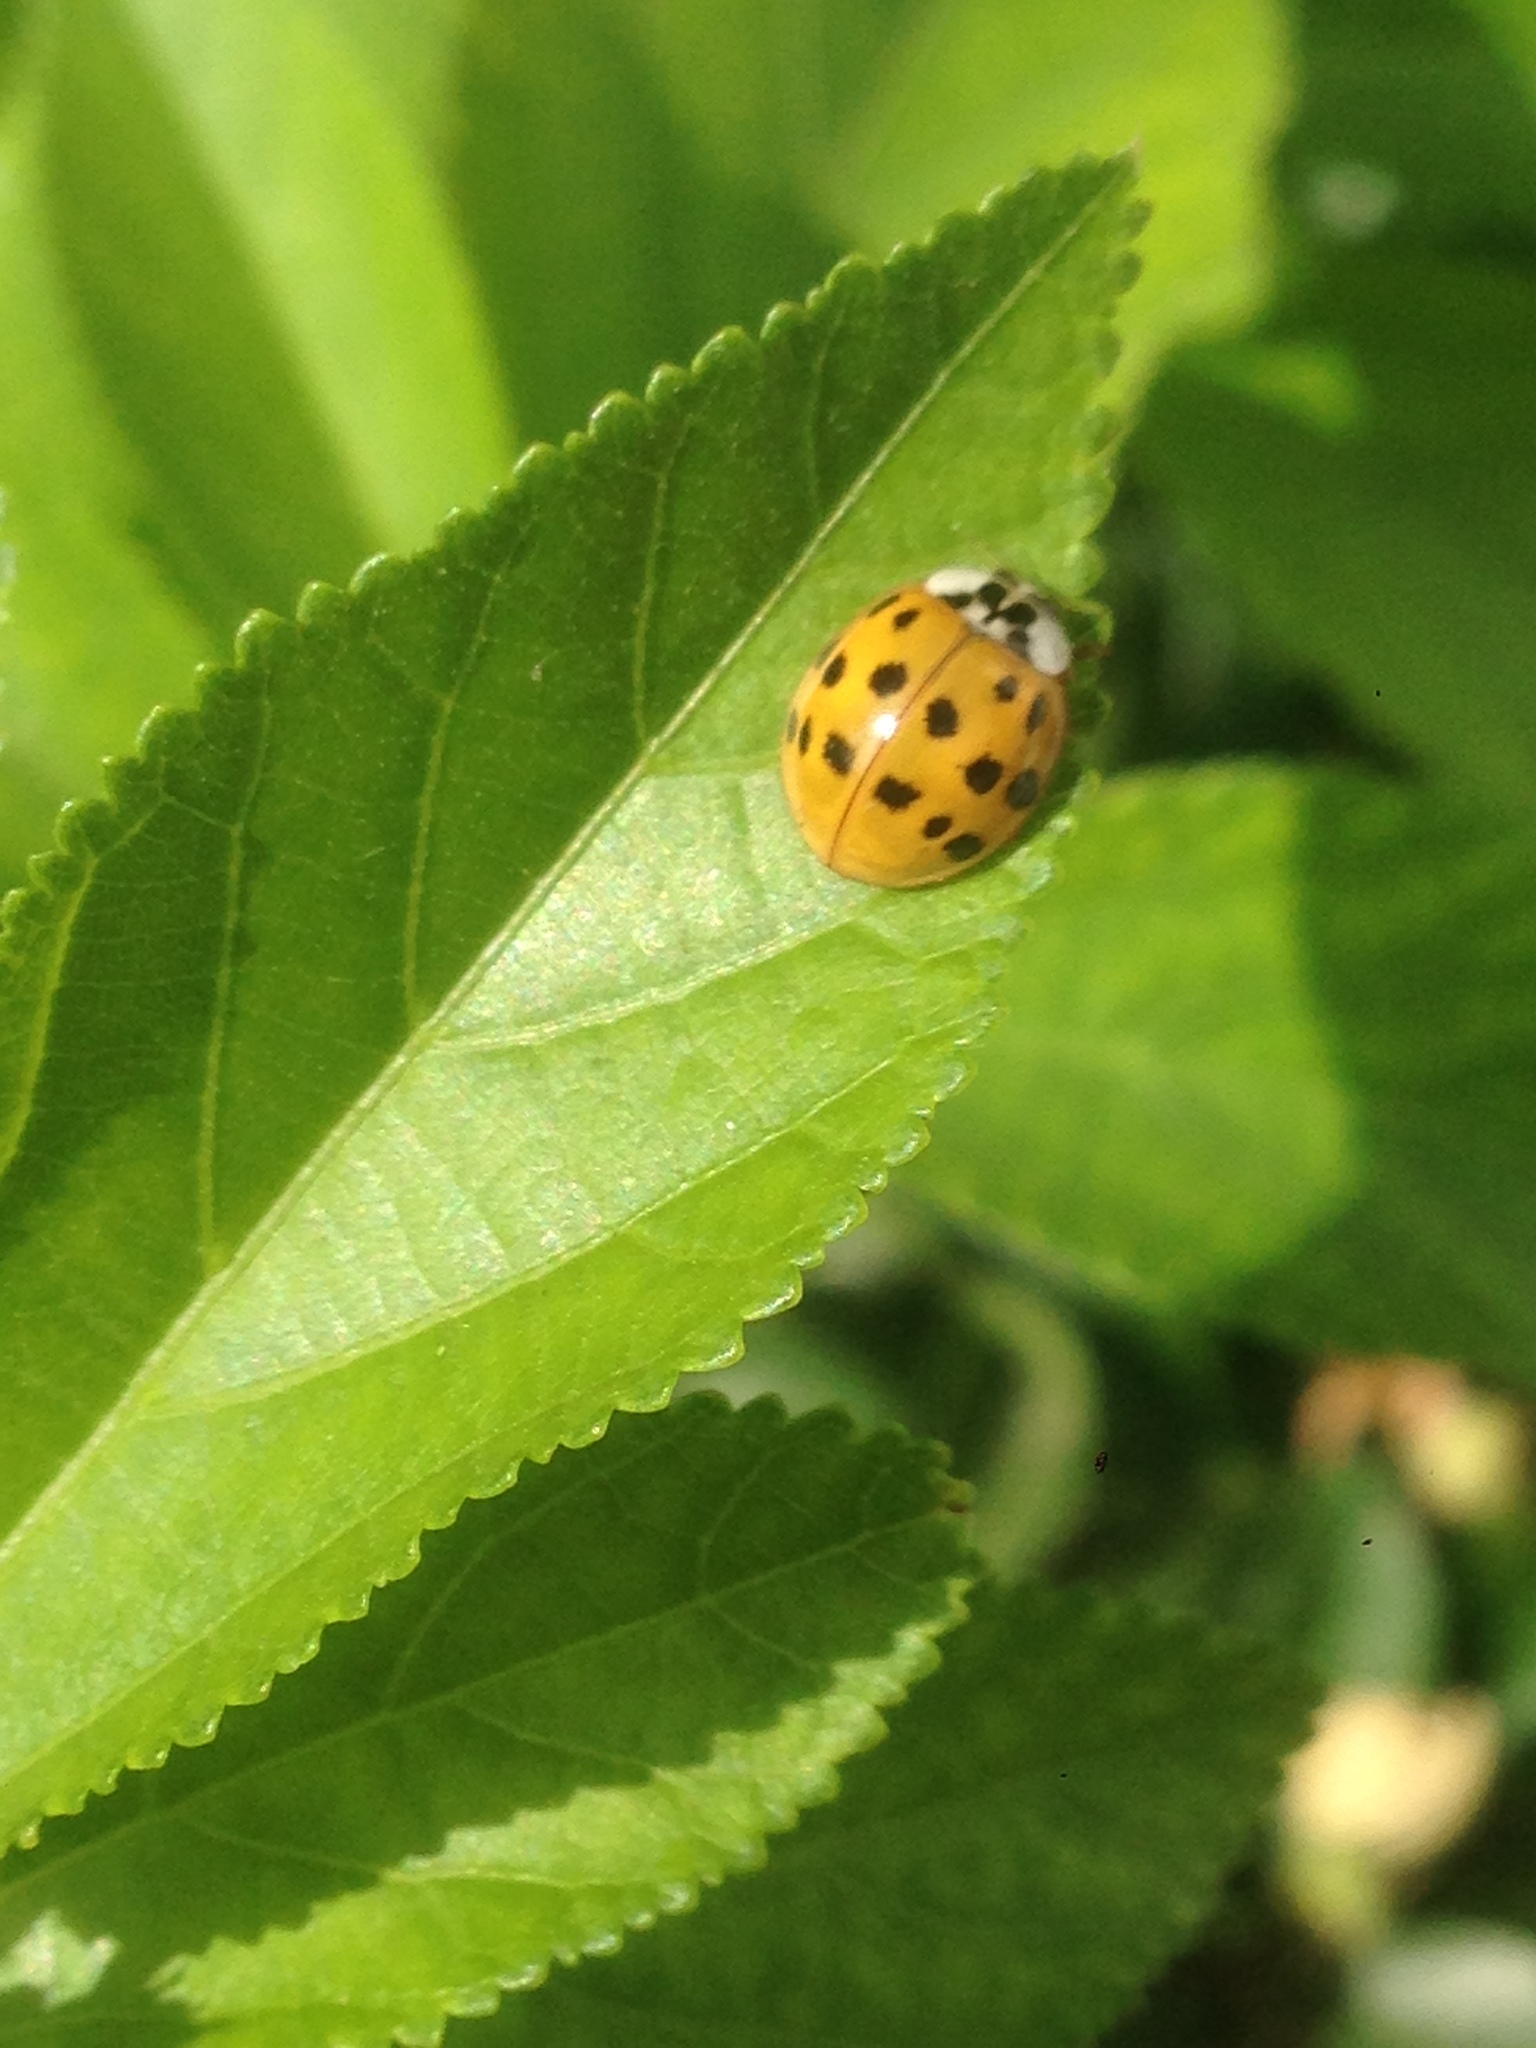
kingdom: Animalia
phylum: Arthropoda
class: Insecta
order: Coleoptera
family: Coccinellidae
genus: Harmonia
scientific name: Harmonia axyridis
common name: Harlequin ladybird
